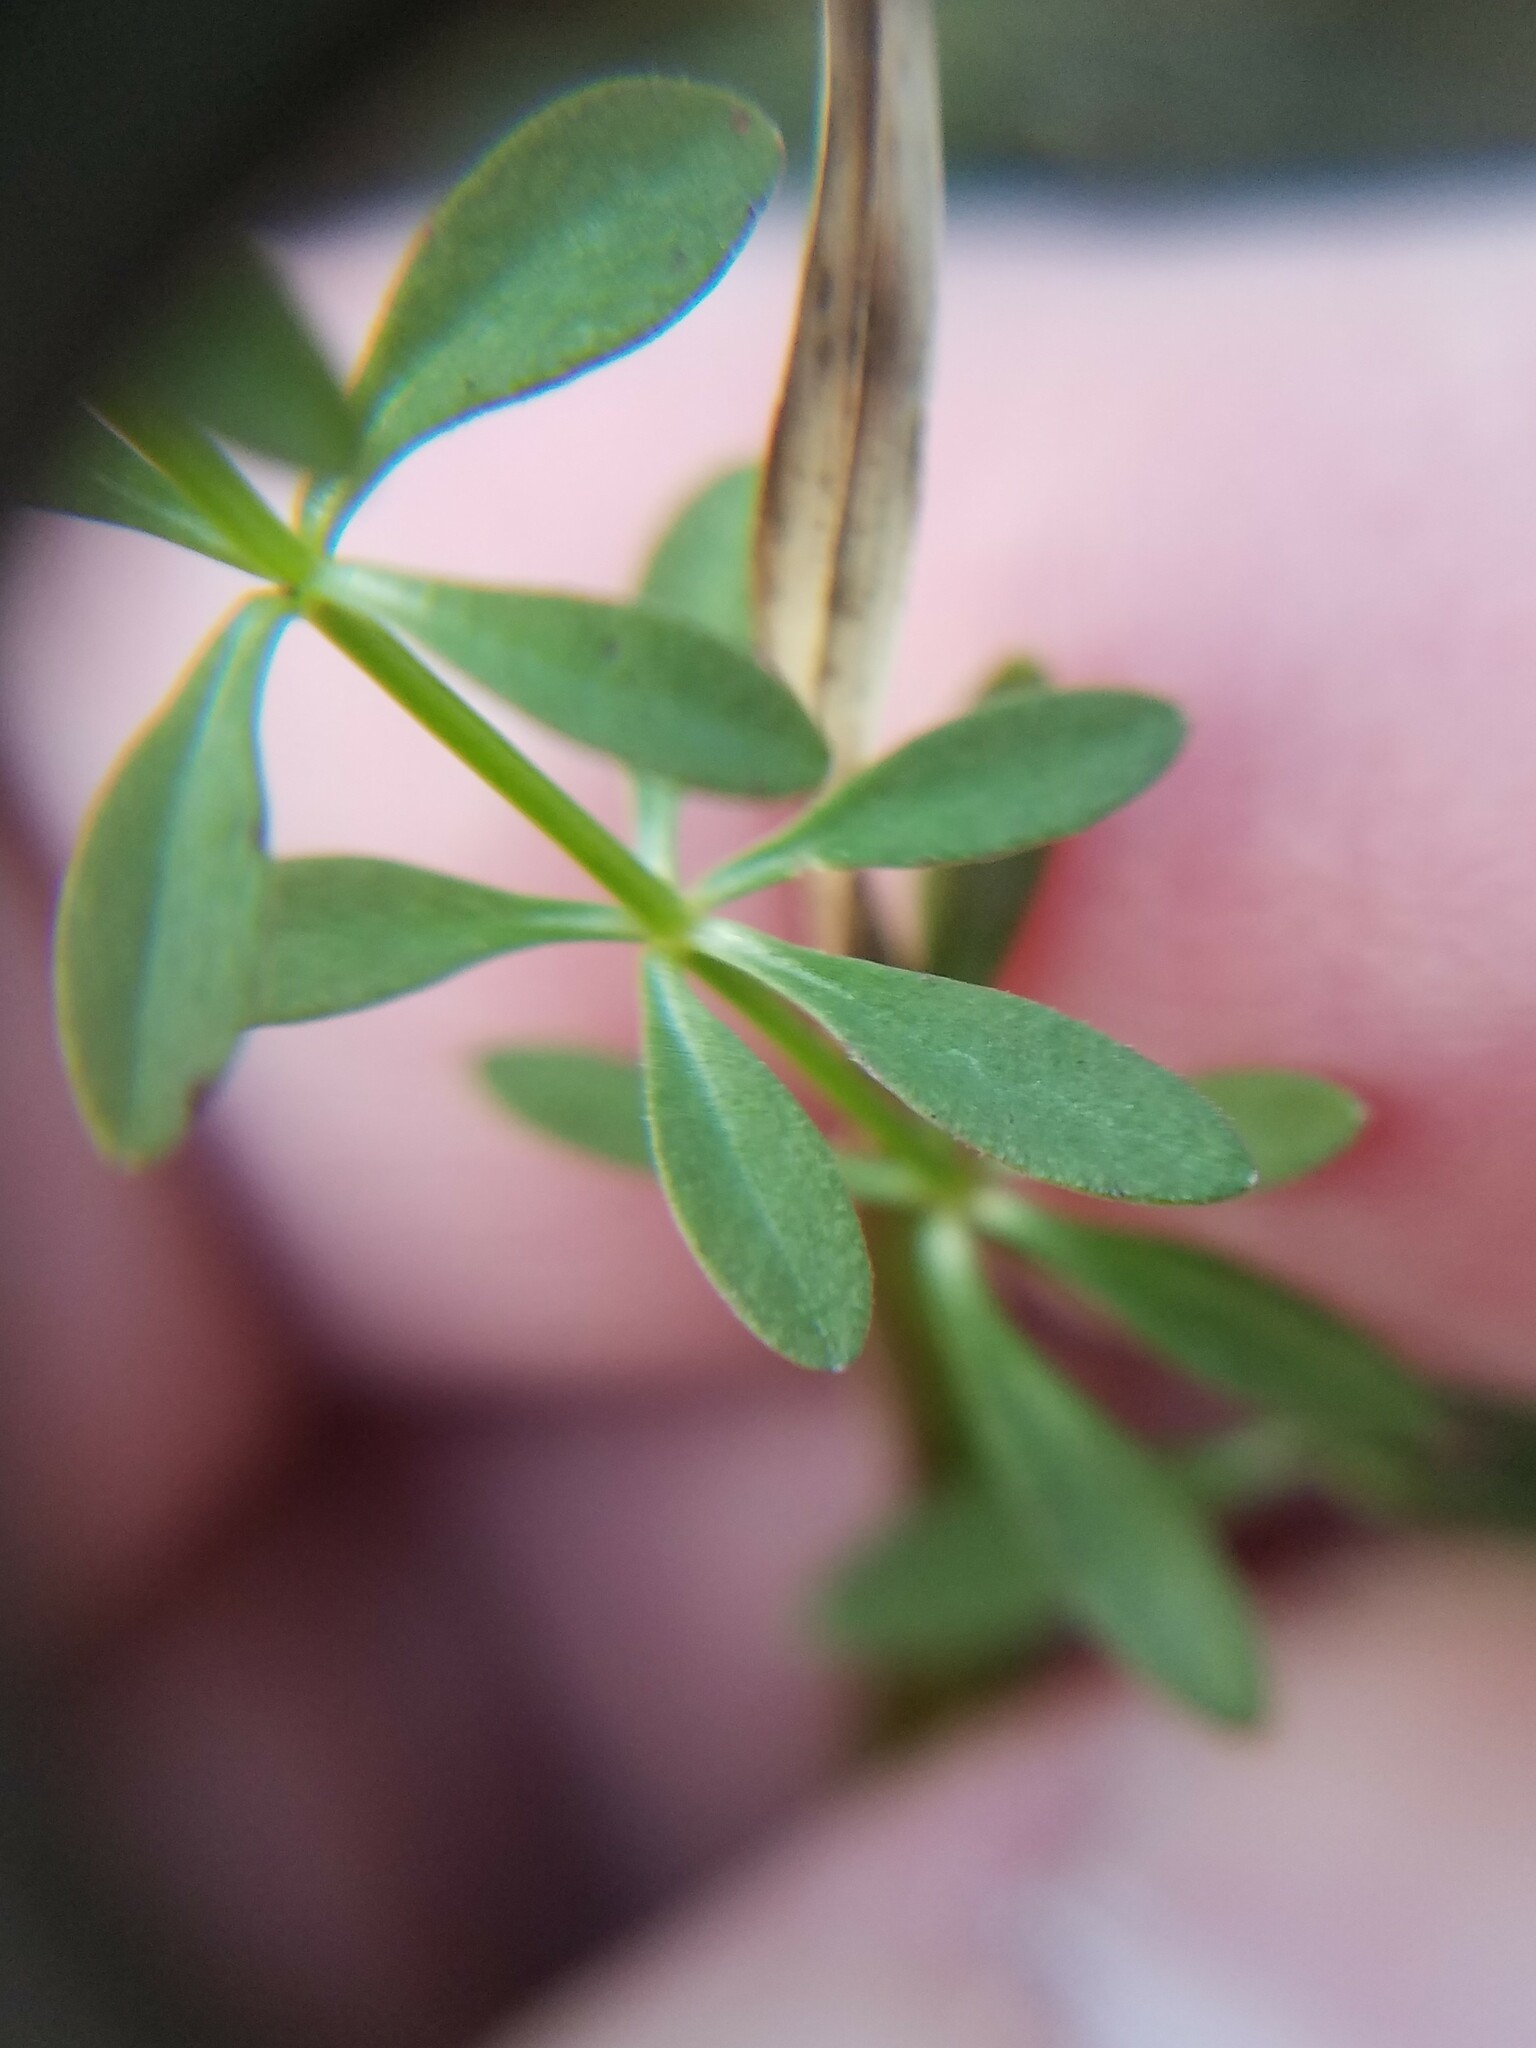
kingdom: Plantae
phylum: Tracheophyta
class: Magnoliopsida
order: Gentianales
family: Rubiaceae
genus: Galium
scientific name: Galium bermudense
